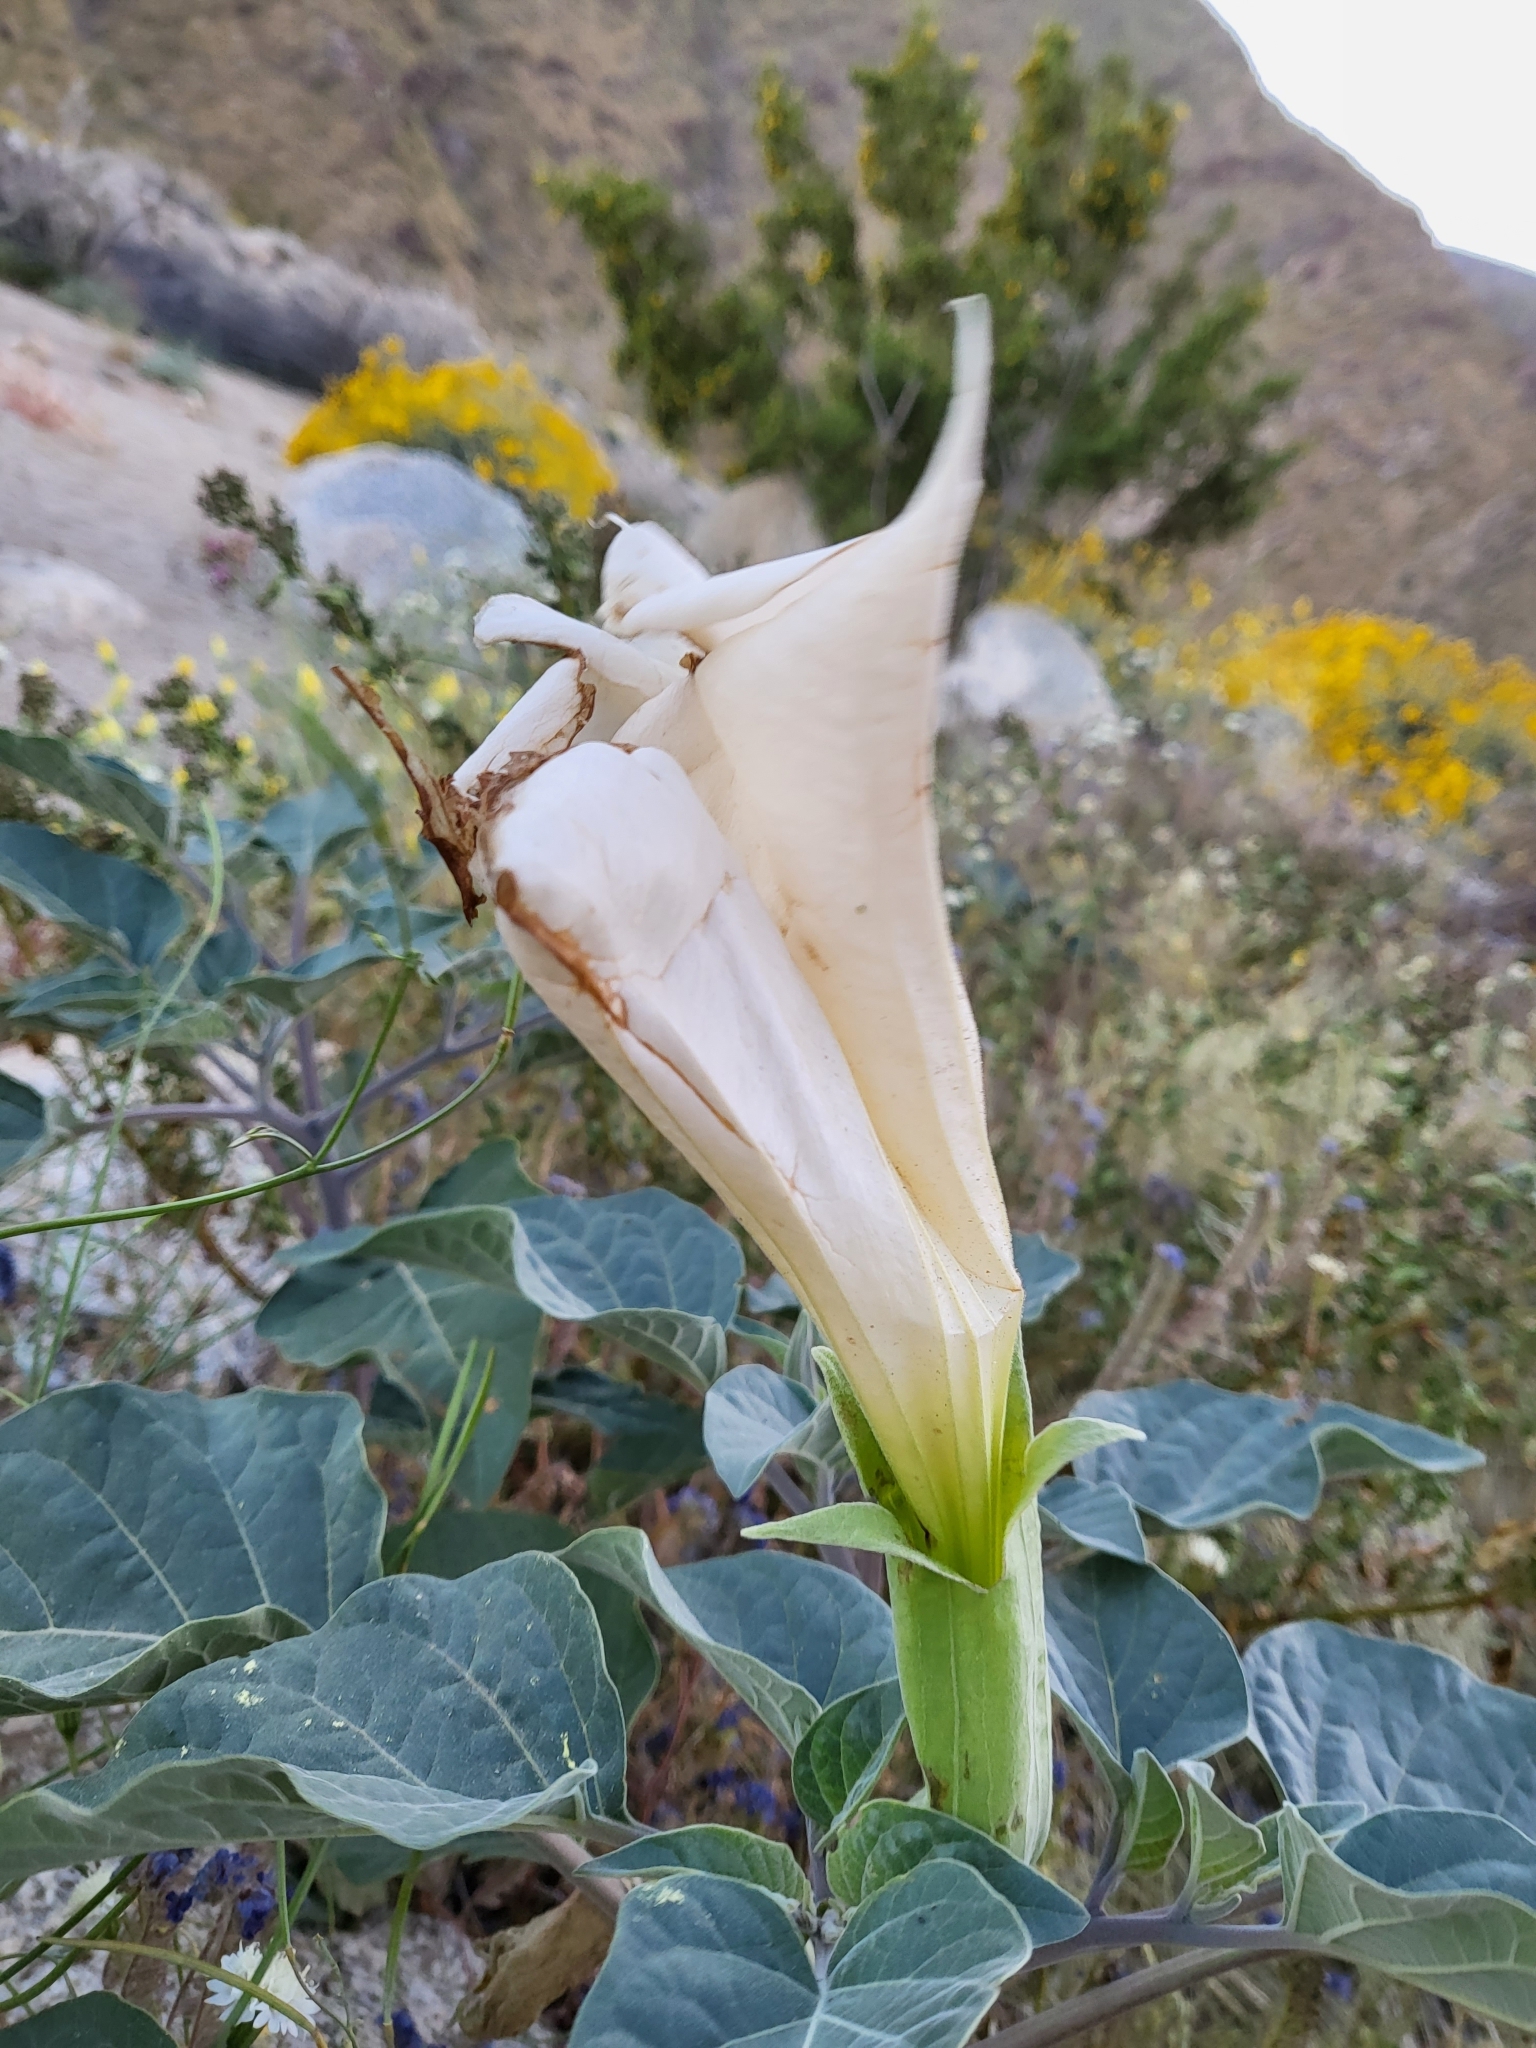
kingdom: Plantae
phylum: Tracheophyta
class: Magnoliopsida
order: Solanales
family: Solanaceae
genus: Datura
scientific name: Datura wrightii
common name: Sacred thorn-apple
